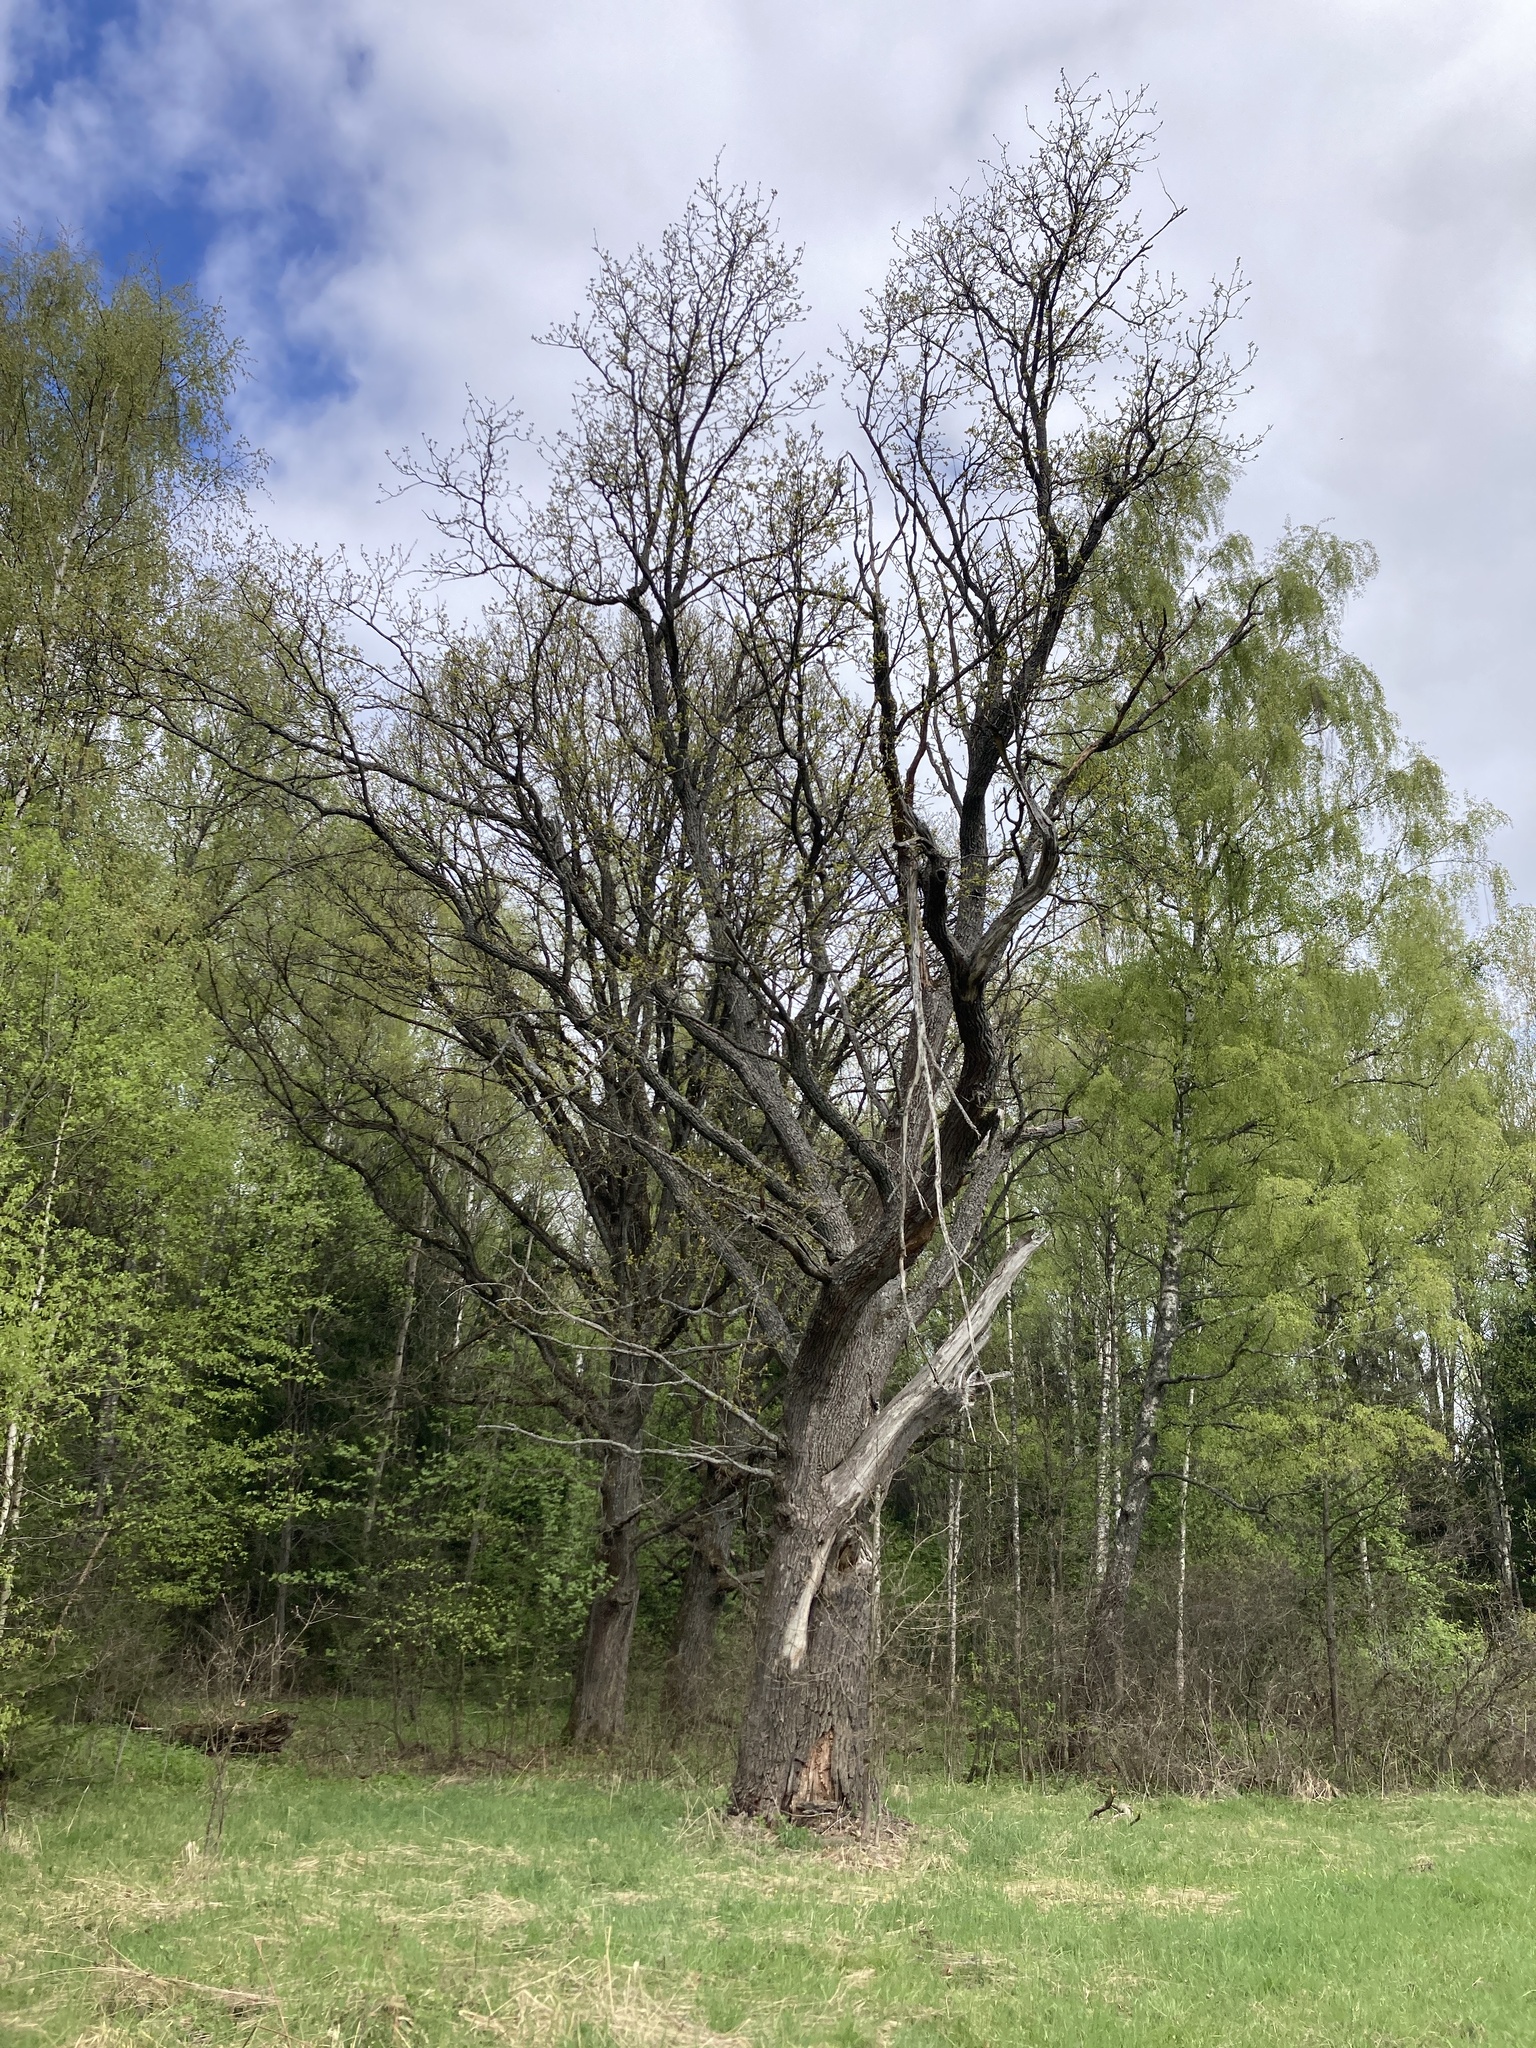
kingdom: Plantae
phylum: Tracheophyta
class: Magnoliopsida
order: Fagales
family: Fagaceae
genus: Quercus
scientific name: Quercus robur
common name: Pedunculate oak
